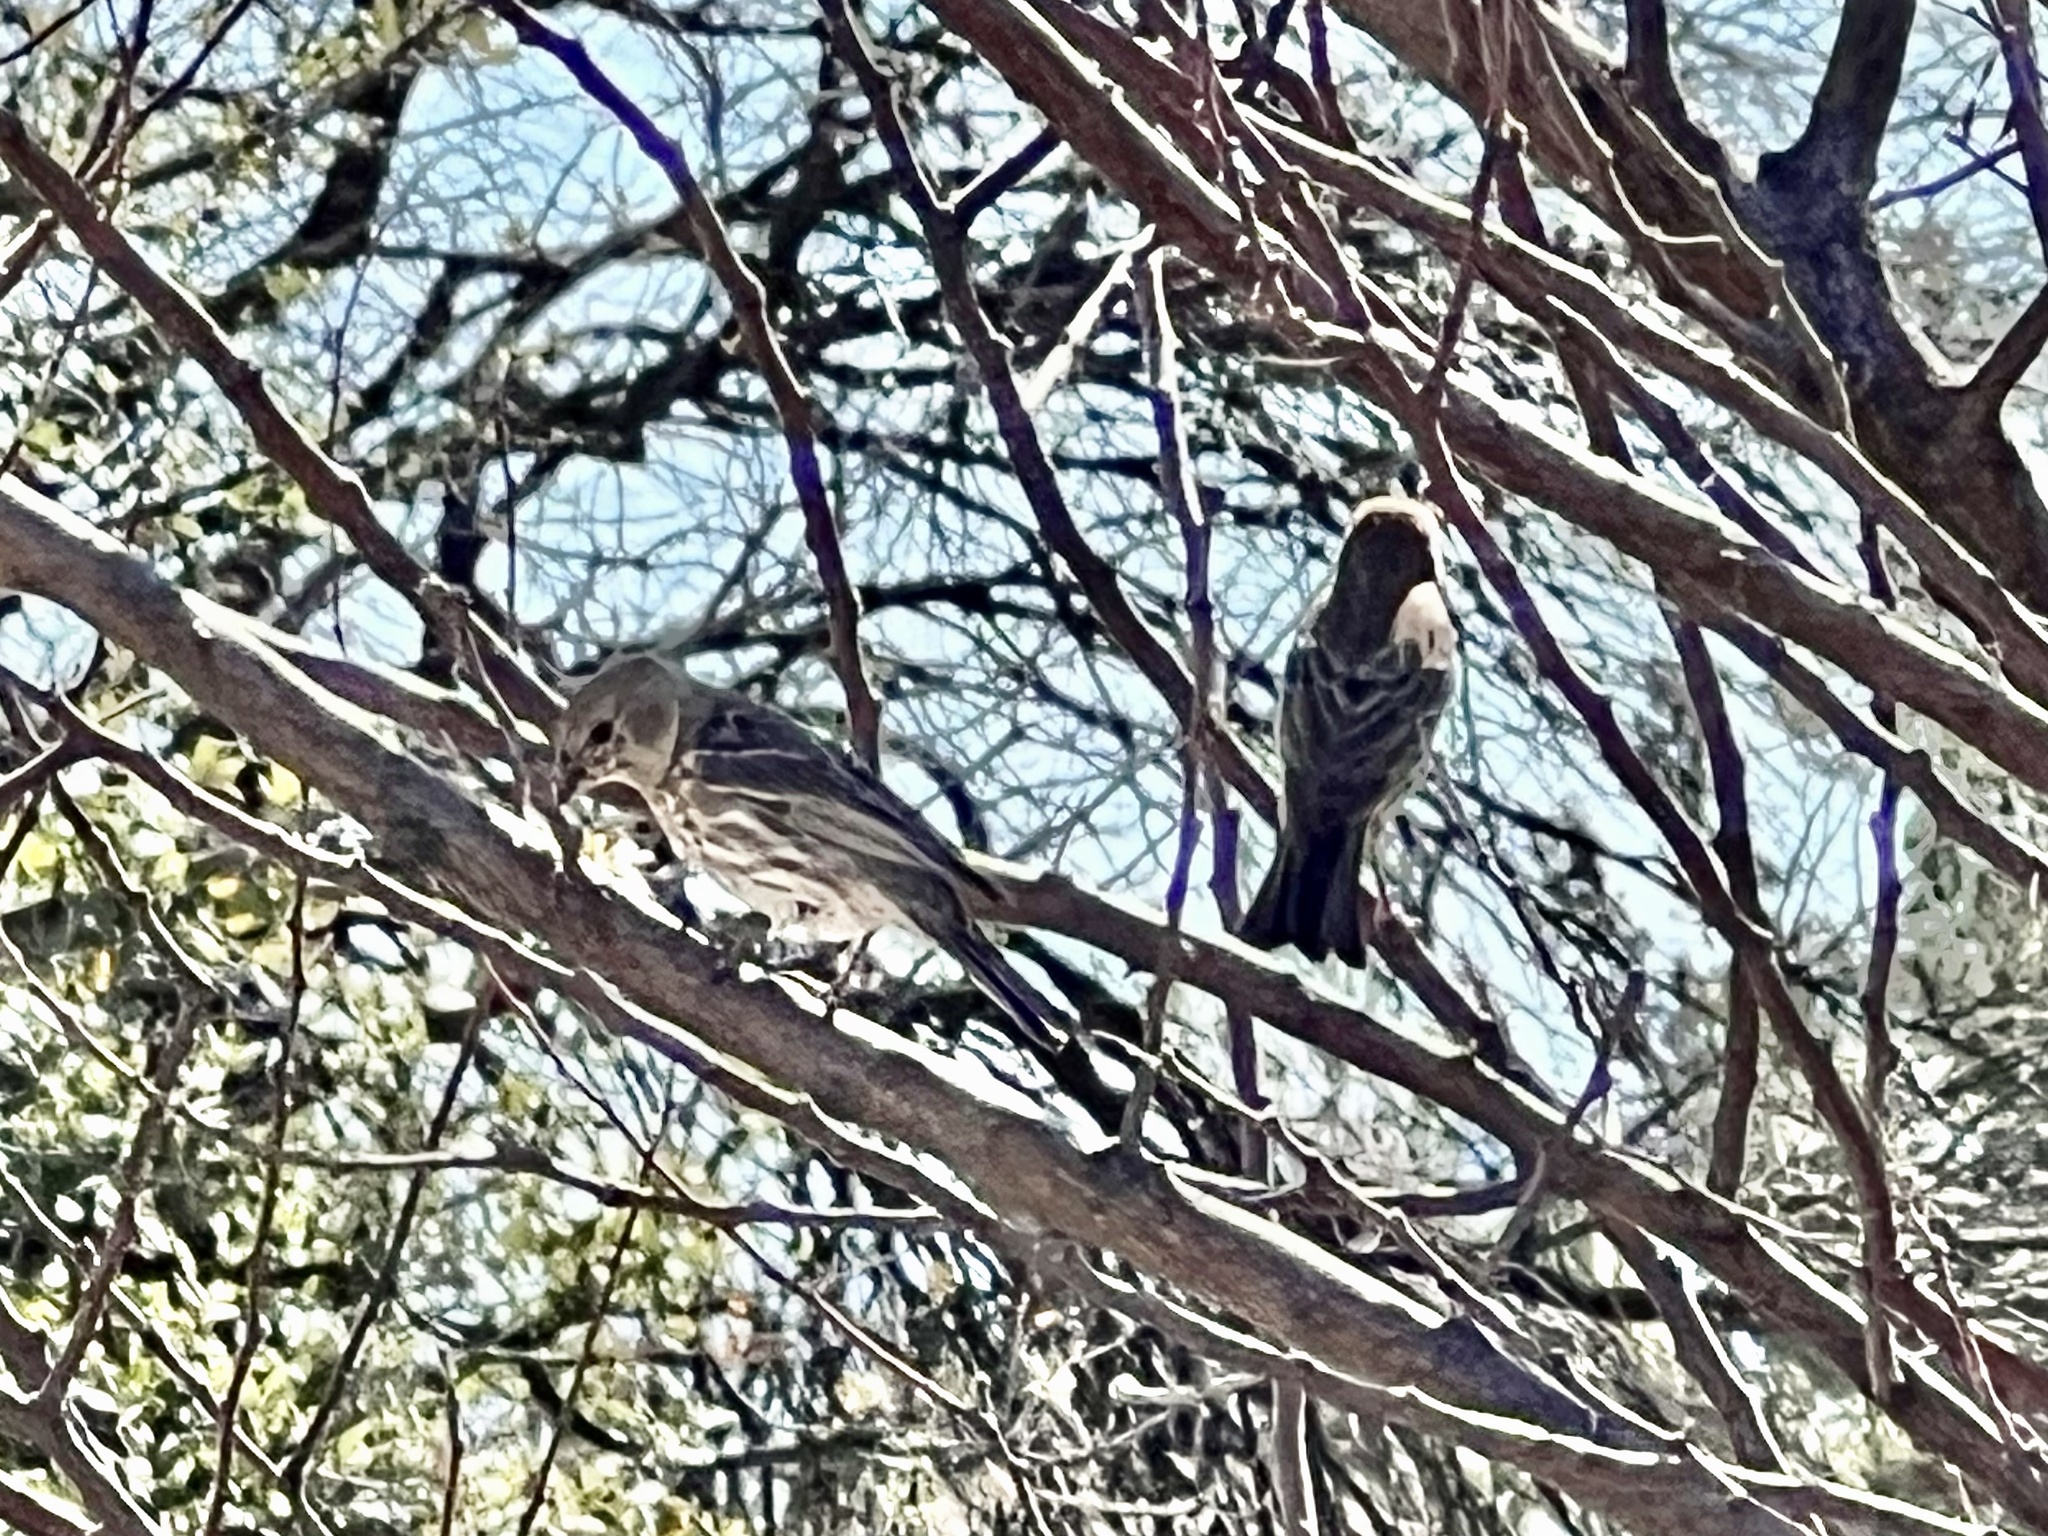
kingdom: Animalia
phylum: Chordata
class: Aves
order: Passeriformes
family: Fringillidae
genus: Haemorhous
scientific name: Haemorhous mexicanus
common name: House finch
